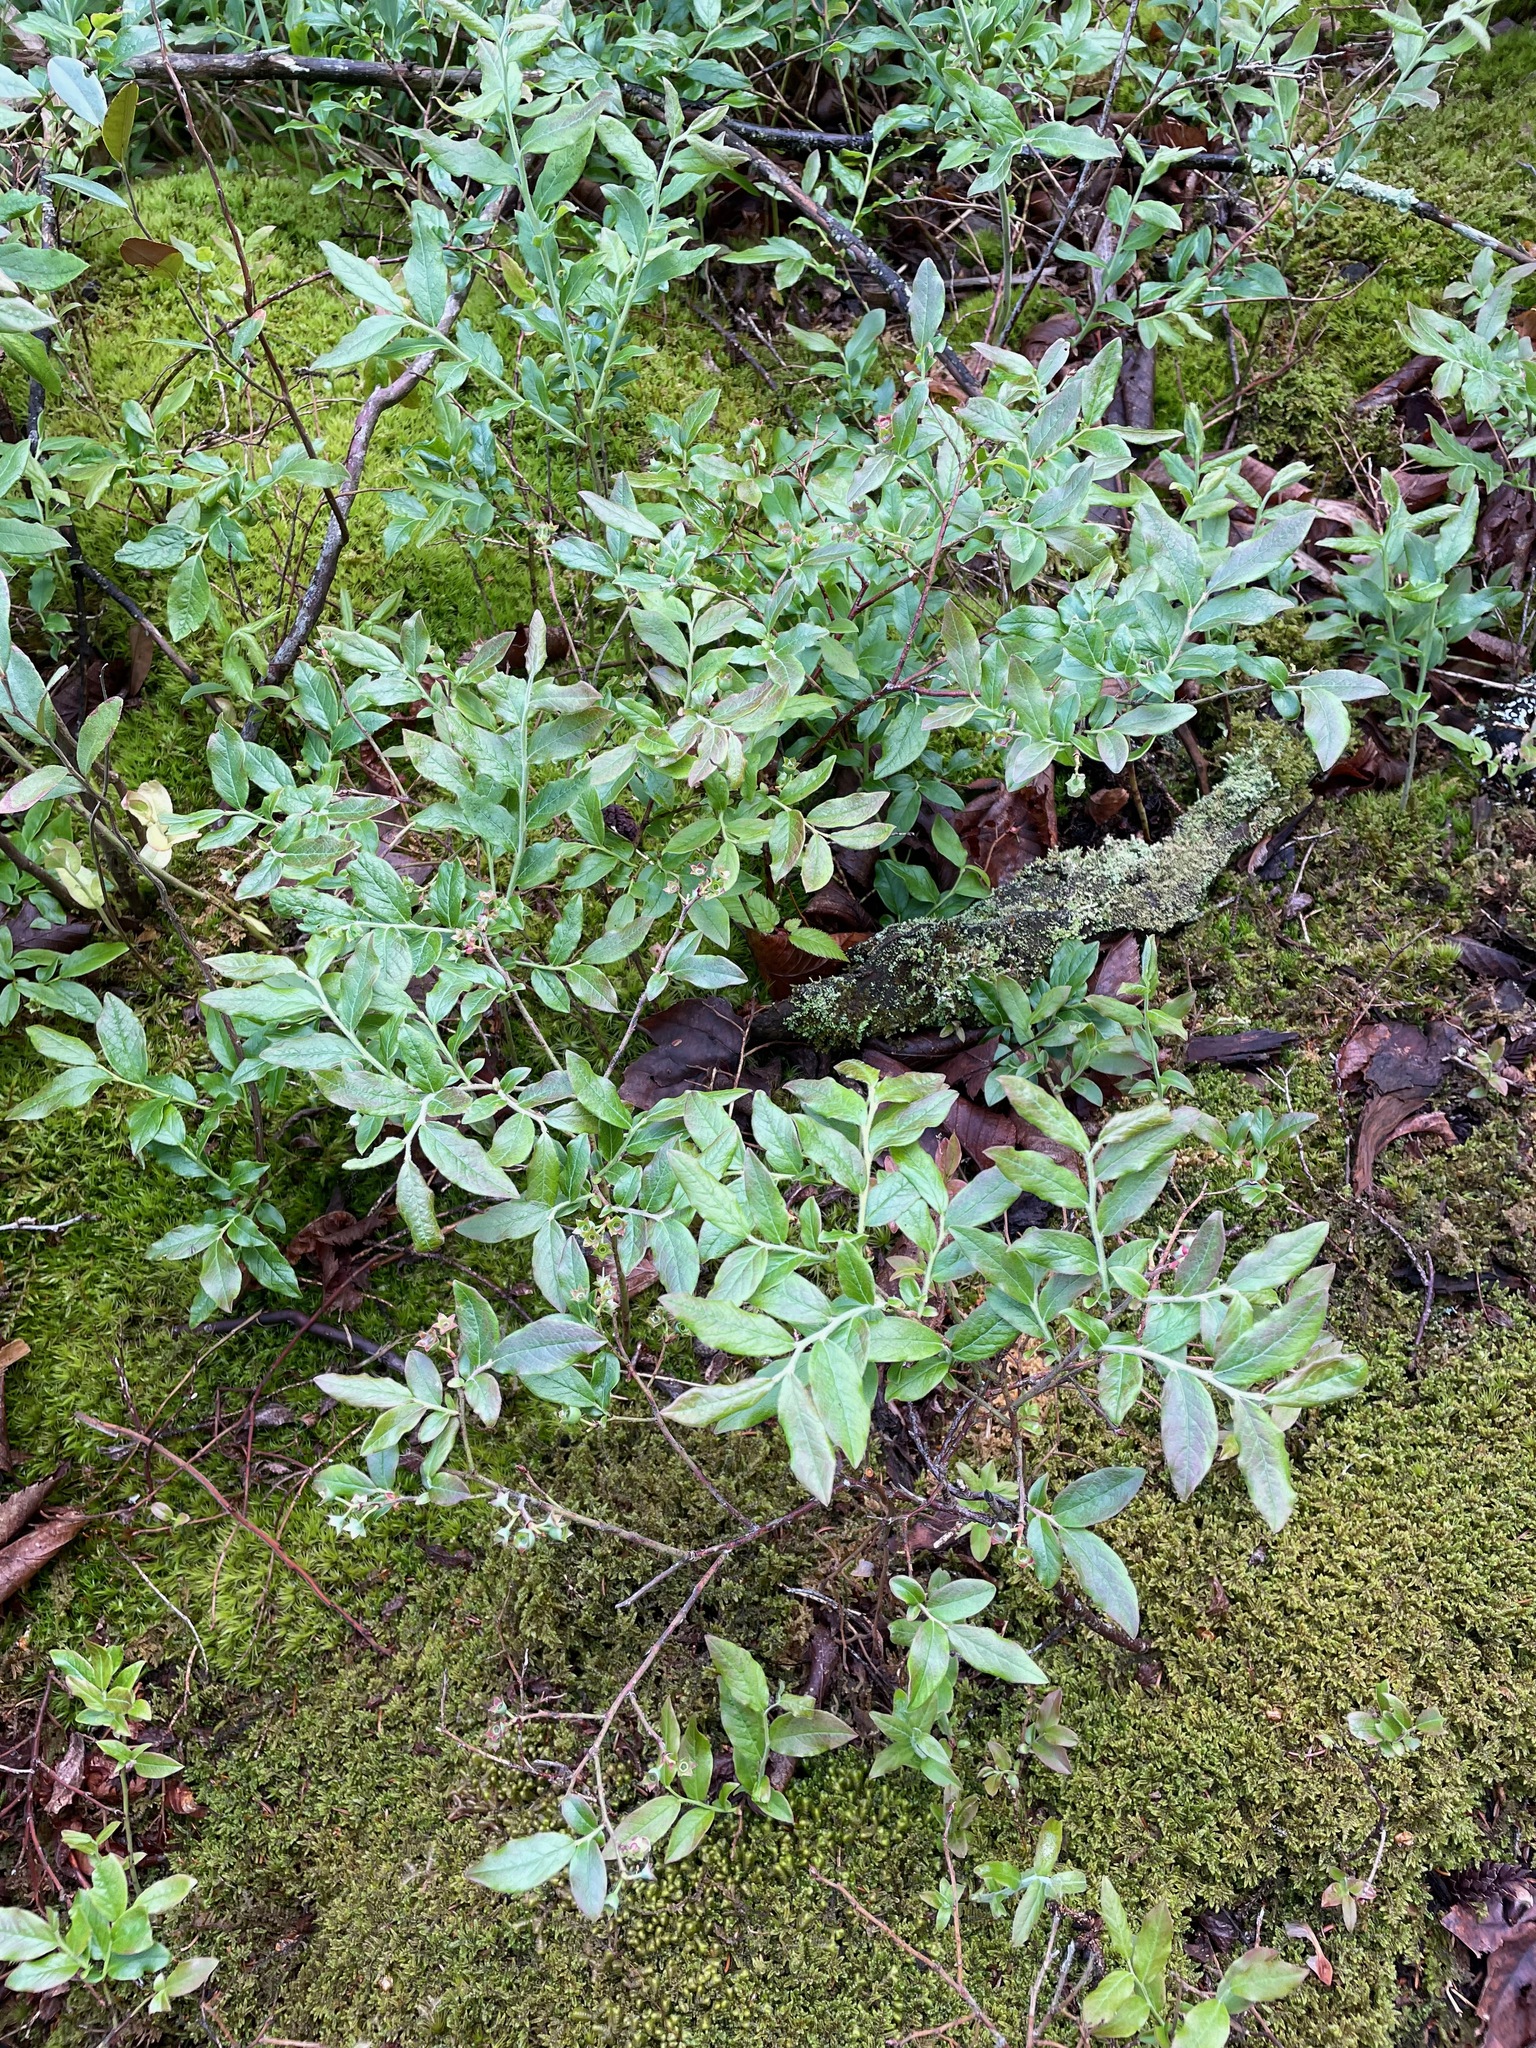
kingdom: Plantae
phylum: Tracheophyta
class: Magnoliopsida
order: Ericales
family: Ericaceae
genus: Vaccinium
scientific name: Vaccinium myrtilloides
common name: Canada blueberry
